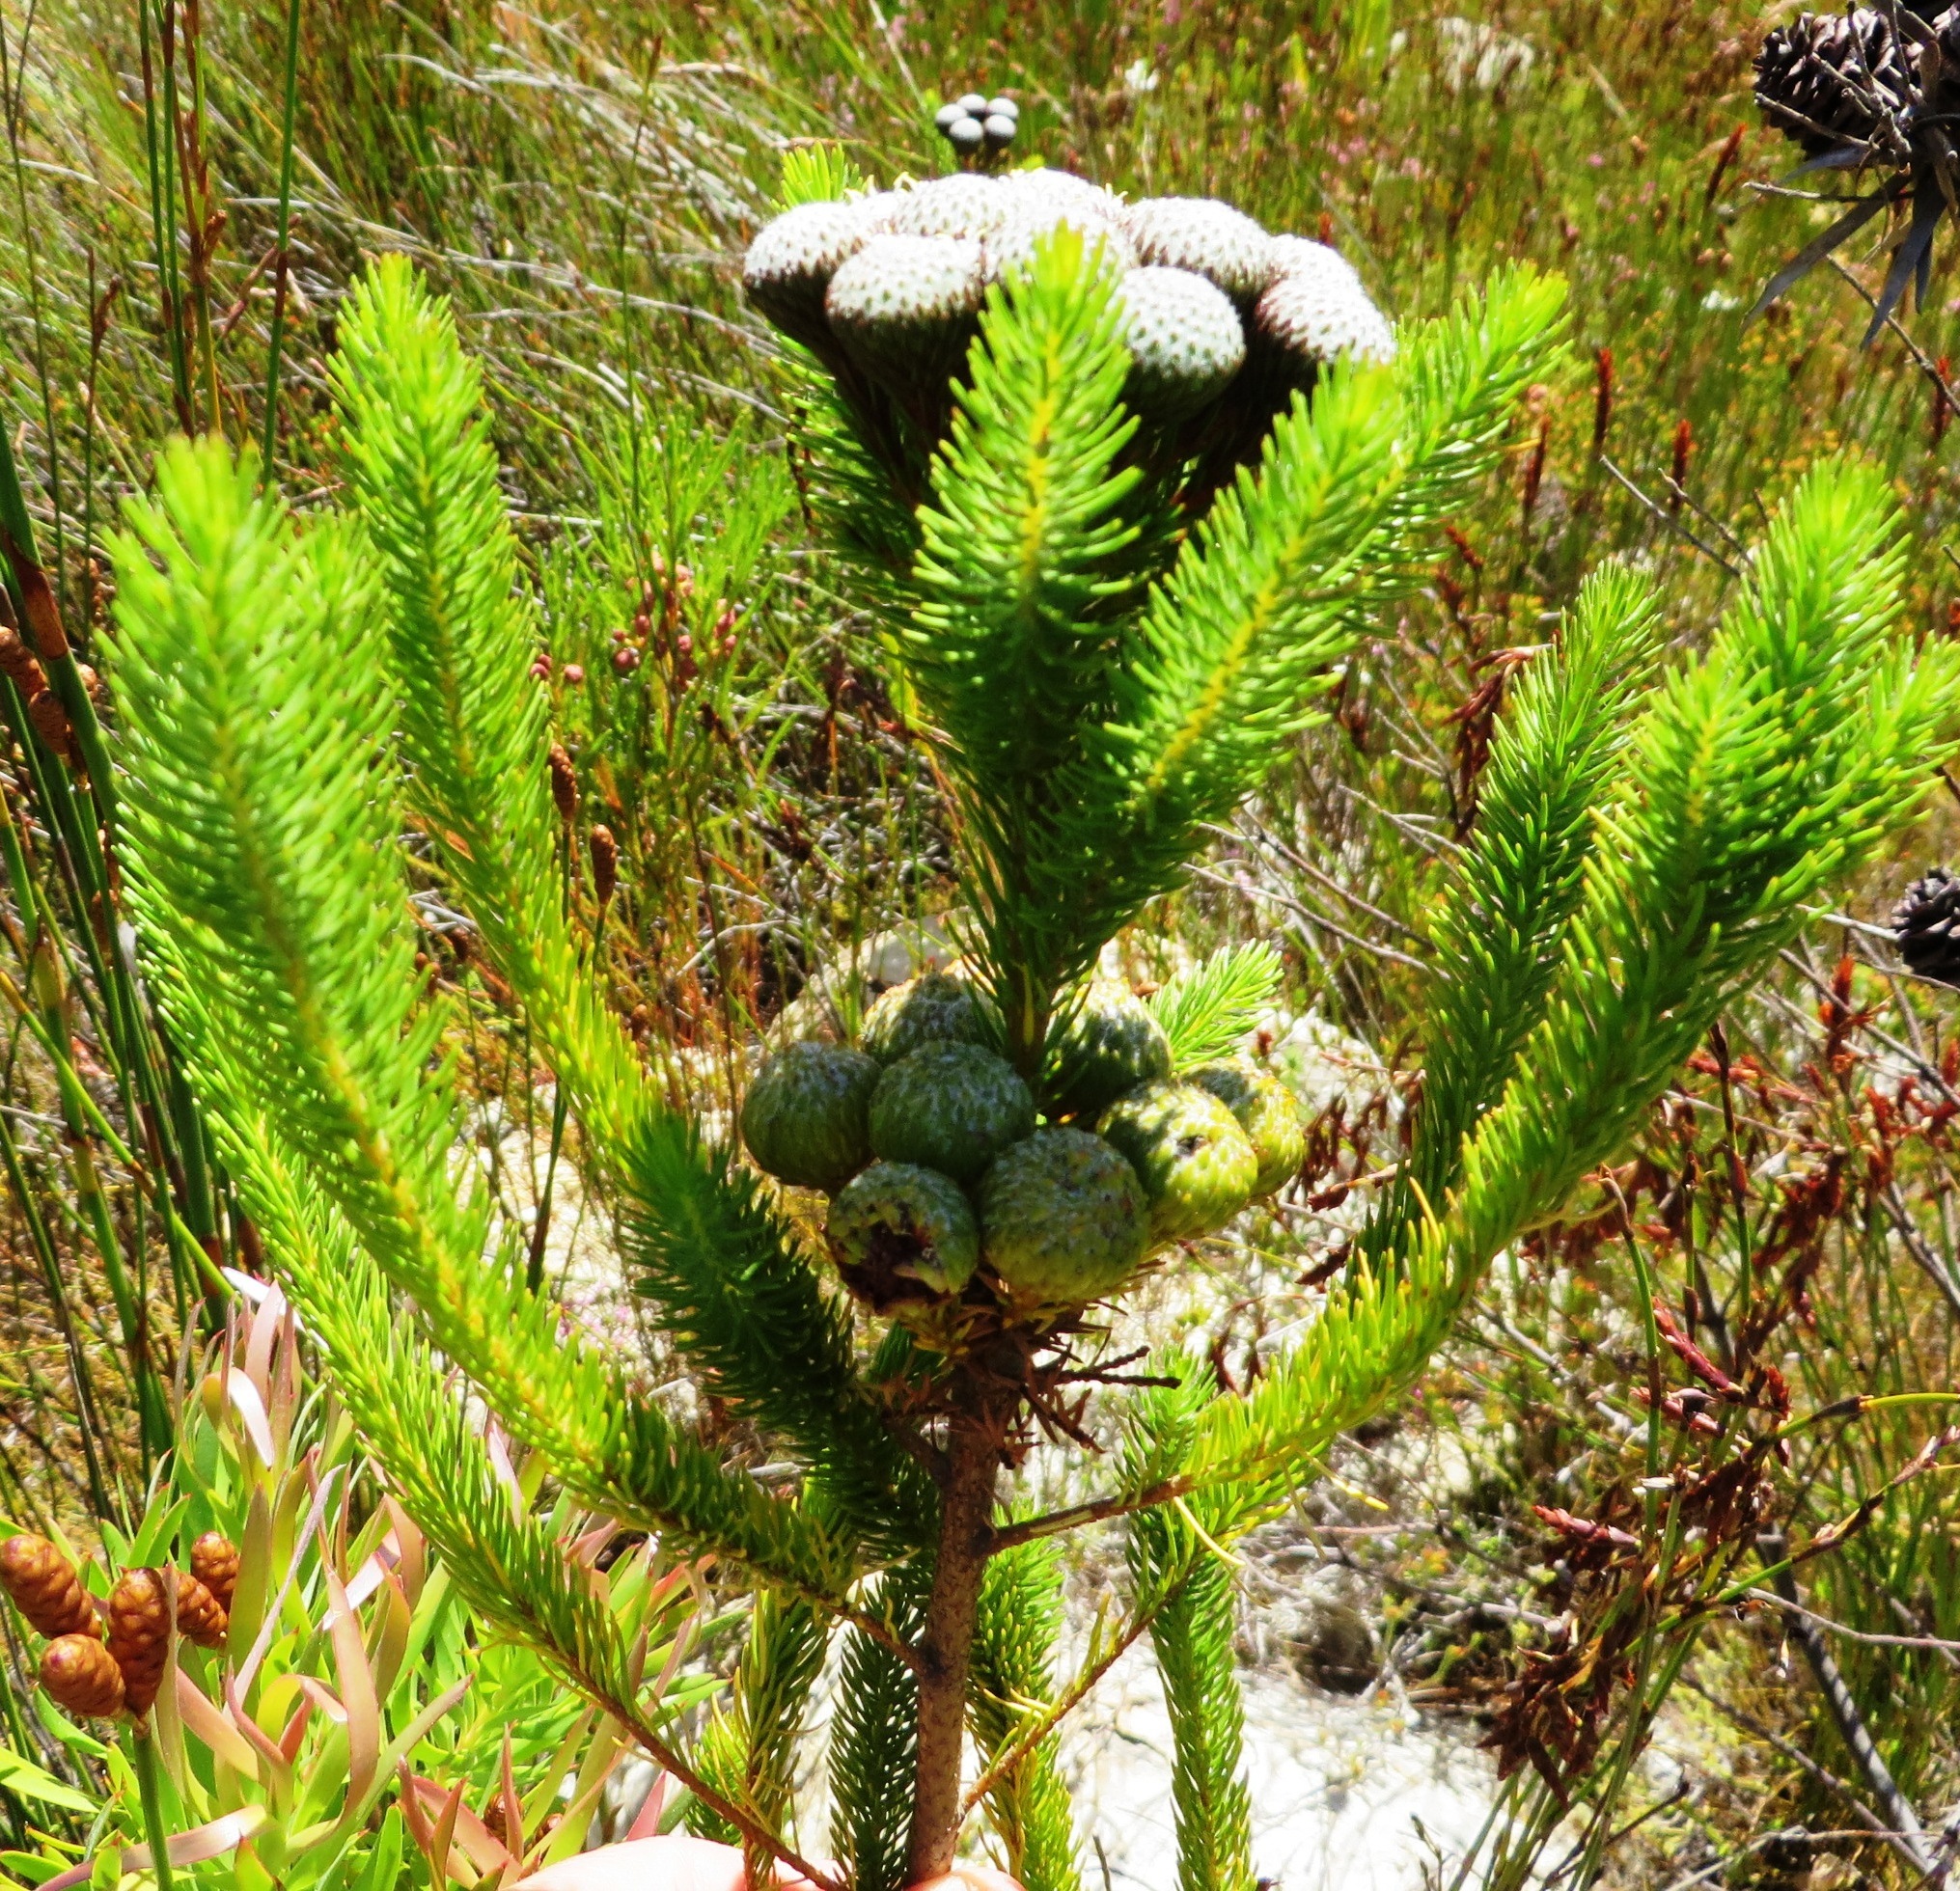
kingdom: Plantae
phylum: Tracheophyta
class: Magnoliopsida
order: Bruniales
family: Bruniaceae
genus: Berzelia
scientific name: Berzelia albiflora
